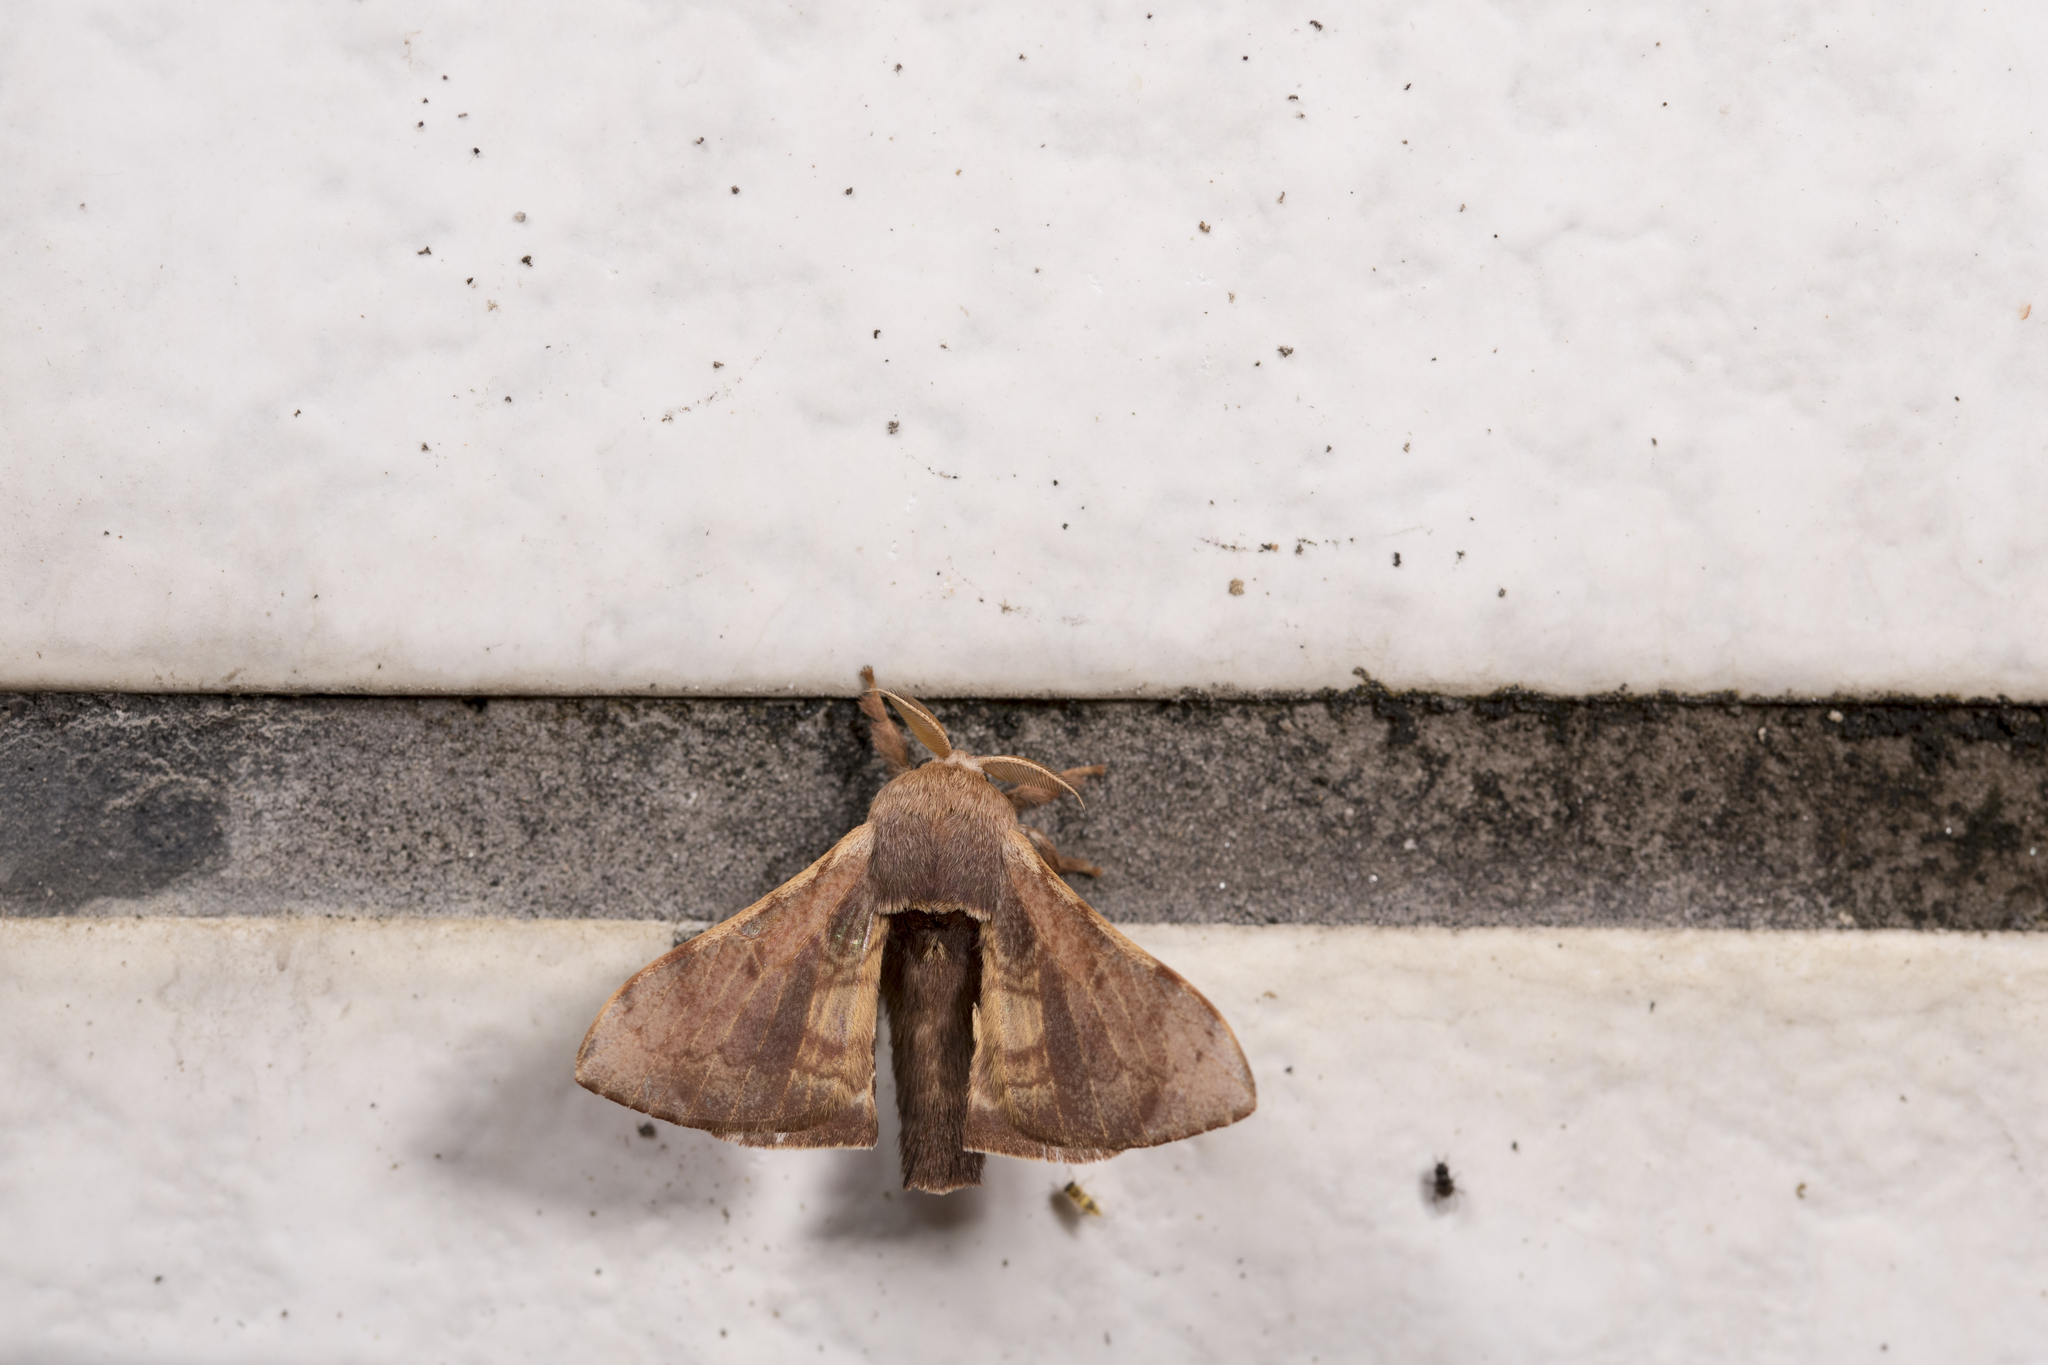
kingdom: Animalia
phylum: Arthropoda
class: Insecta
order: Lepidoptera
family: Bombycidae
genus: Triuncina
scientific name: Triuncina brunnea
